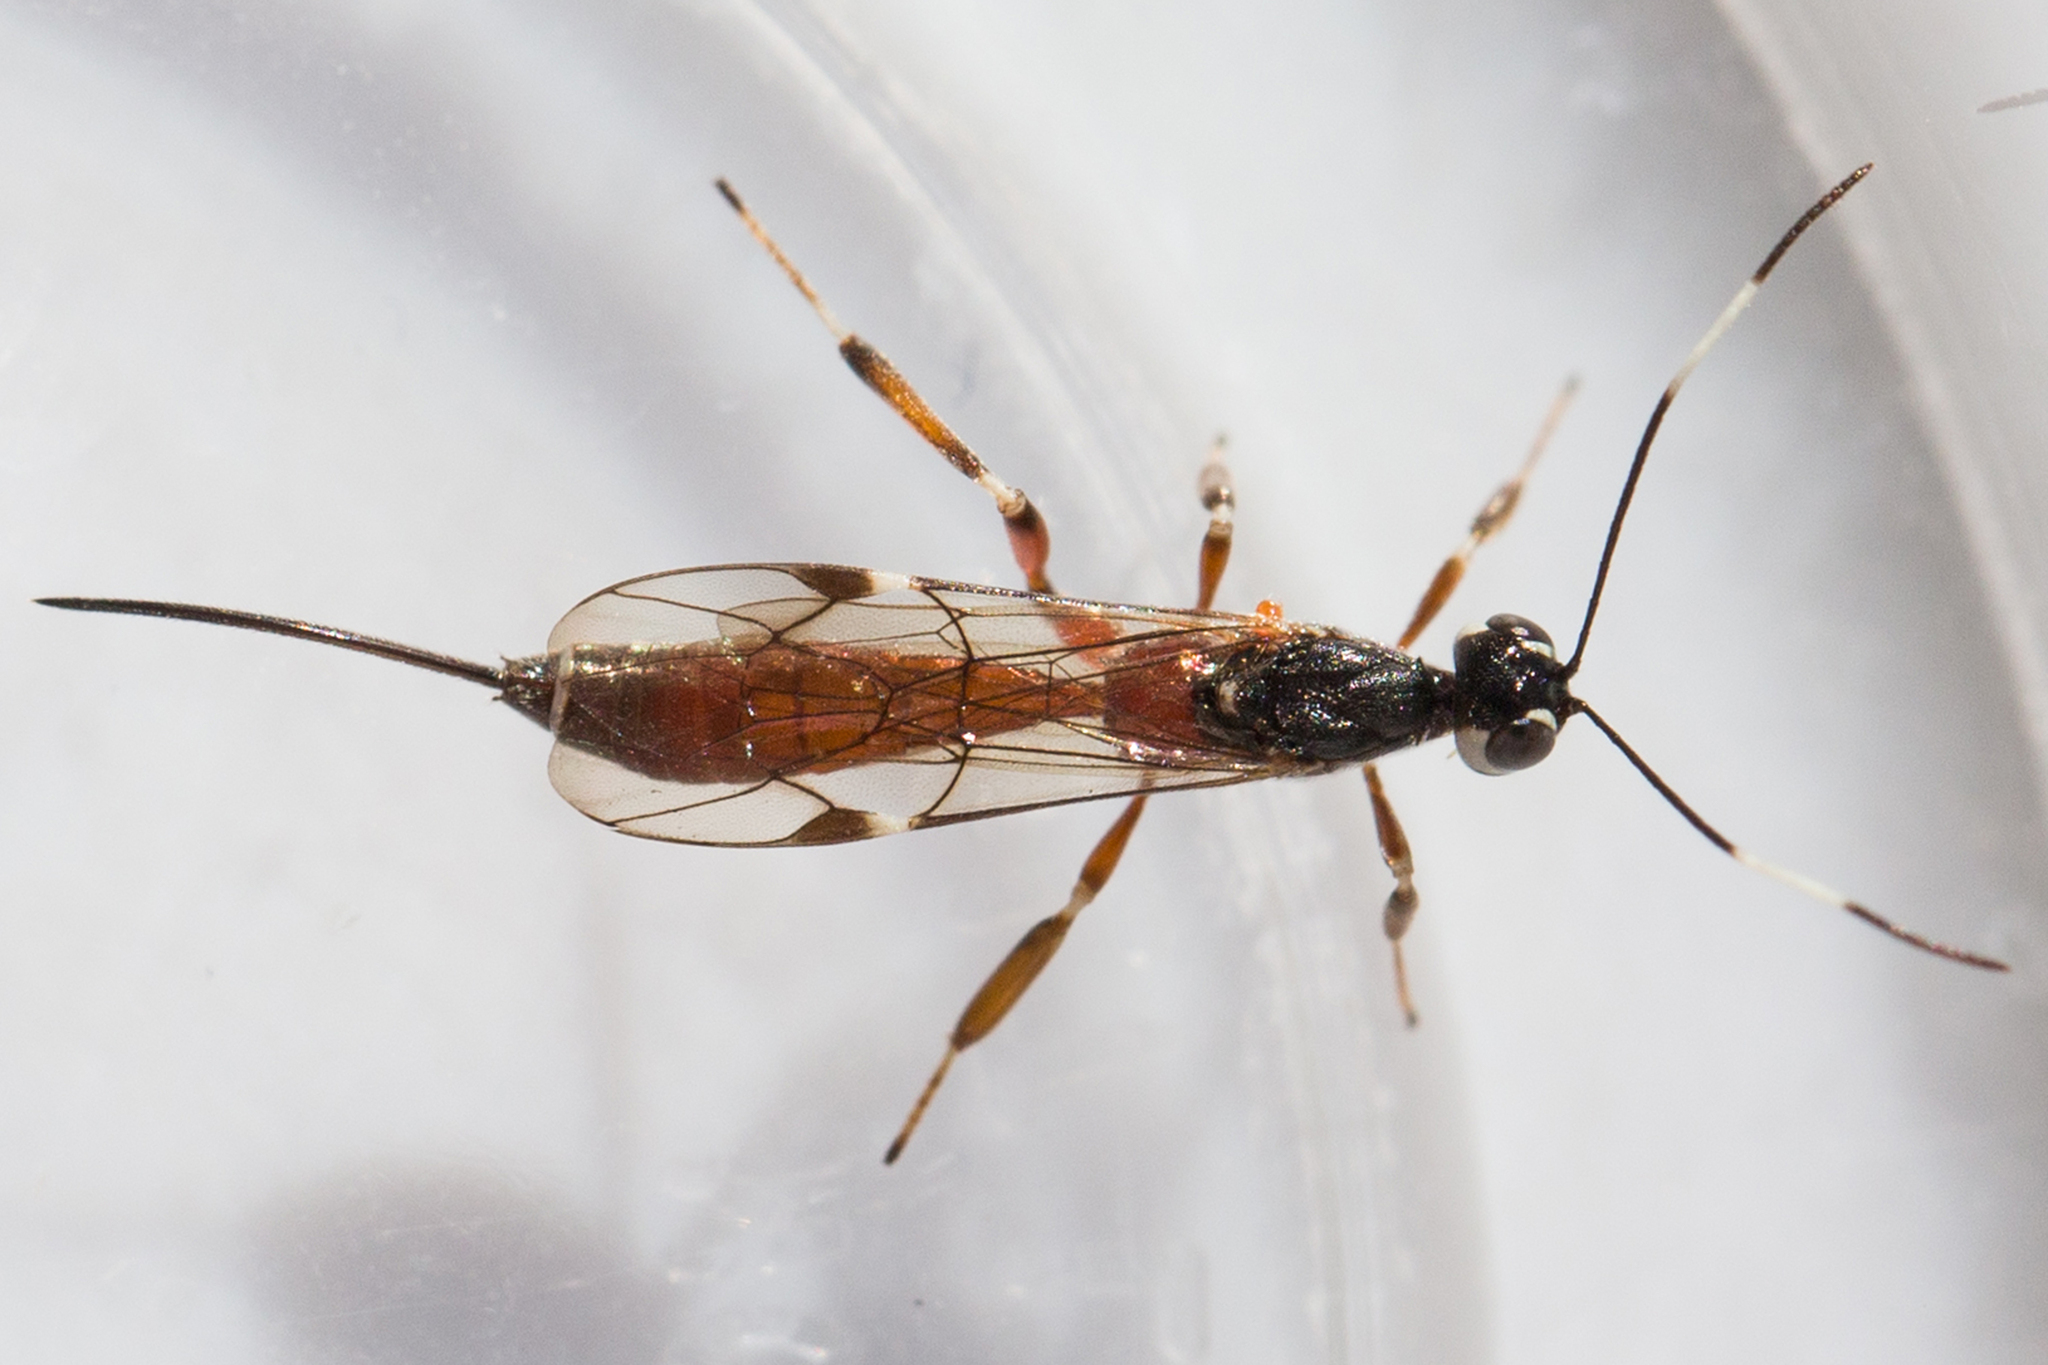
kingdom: Animalia
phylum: Arthropoda
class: Insecta
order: Hymenoptera
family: Ichneumonidae
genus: Xorides
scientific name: Xorides calidus
